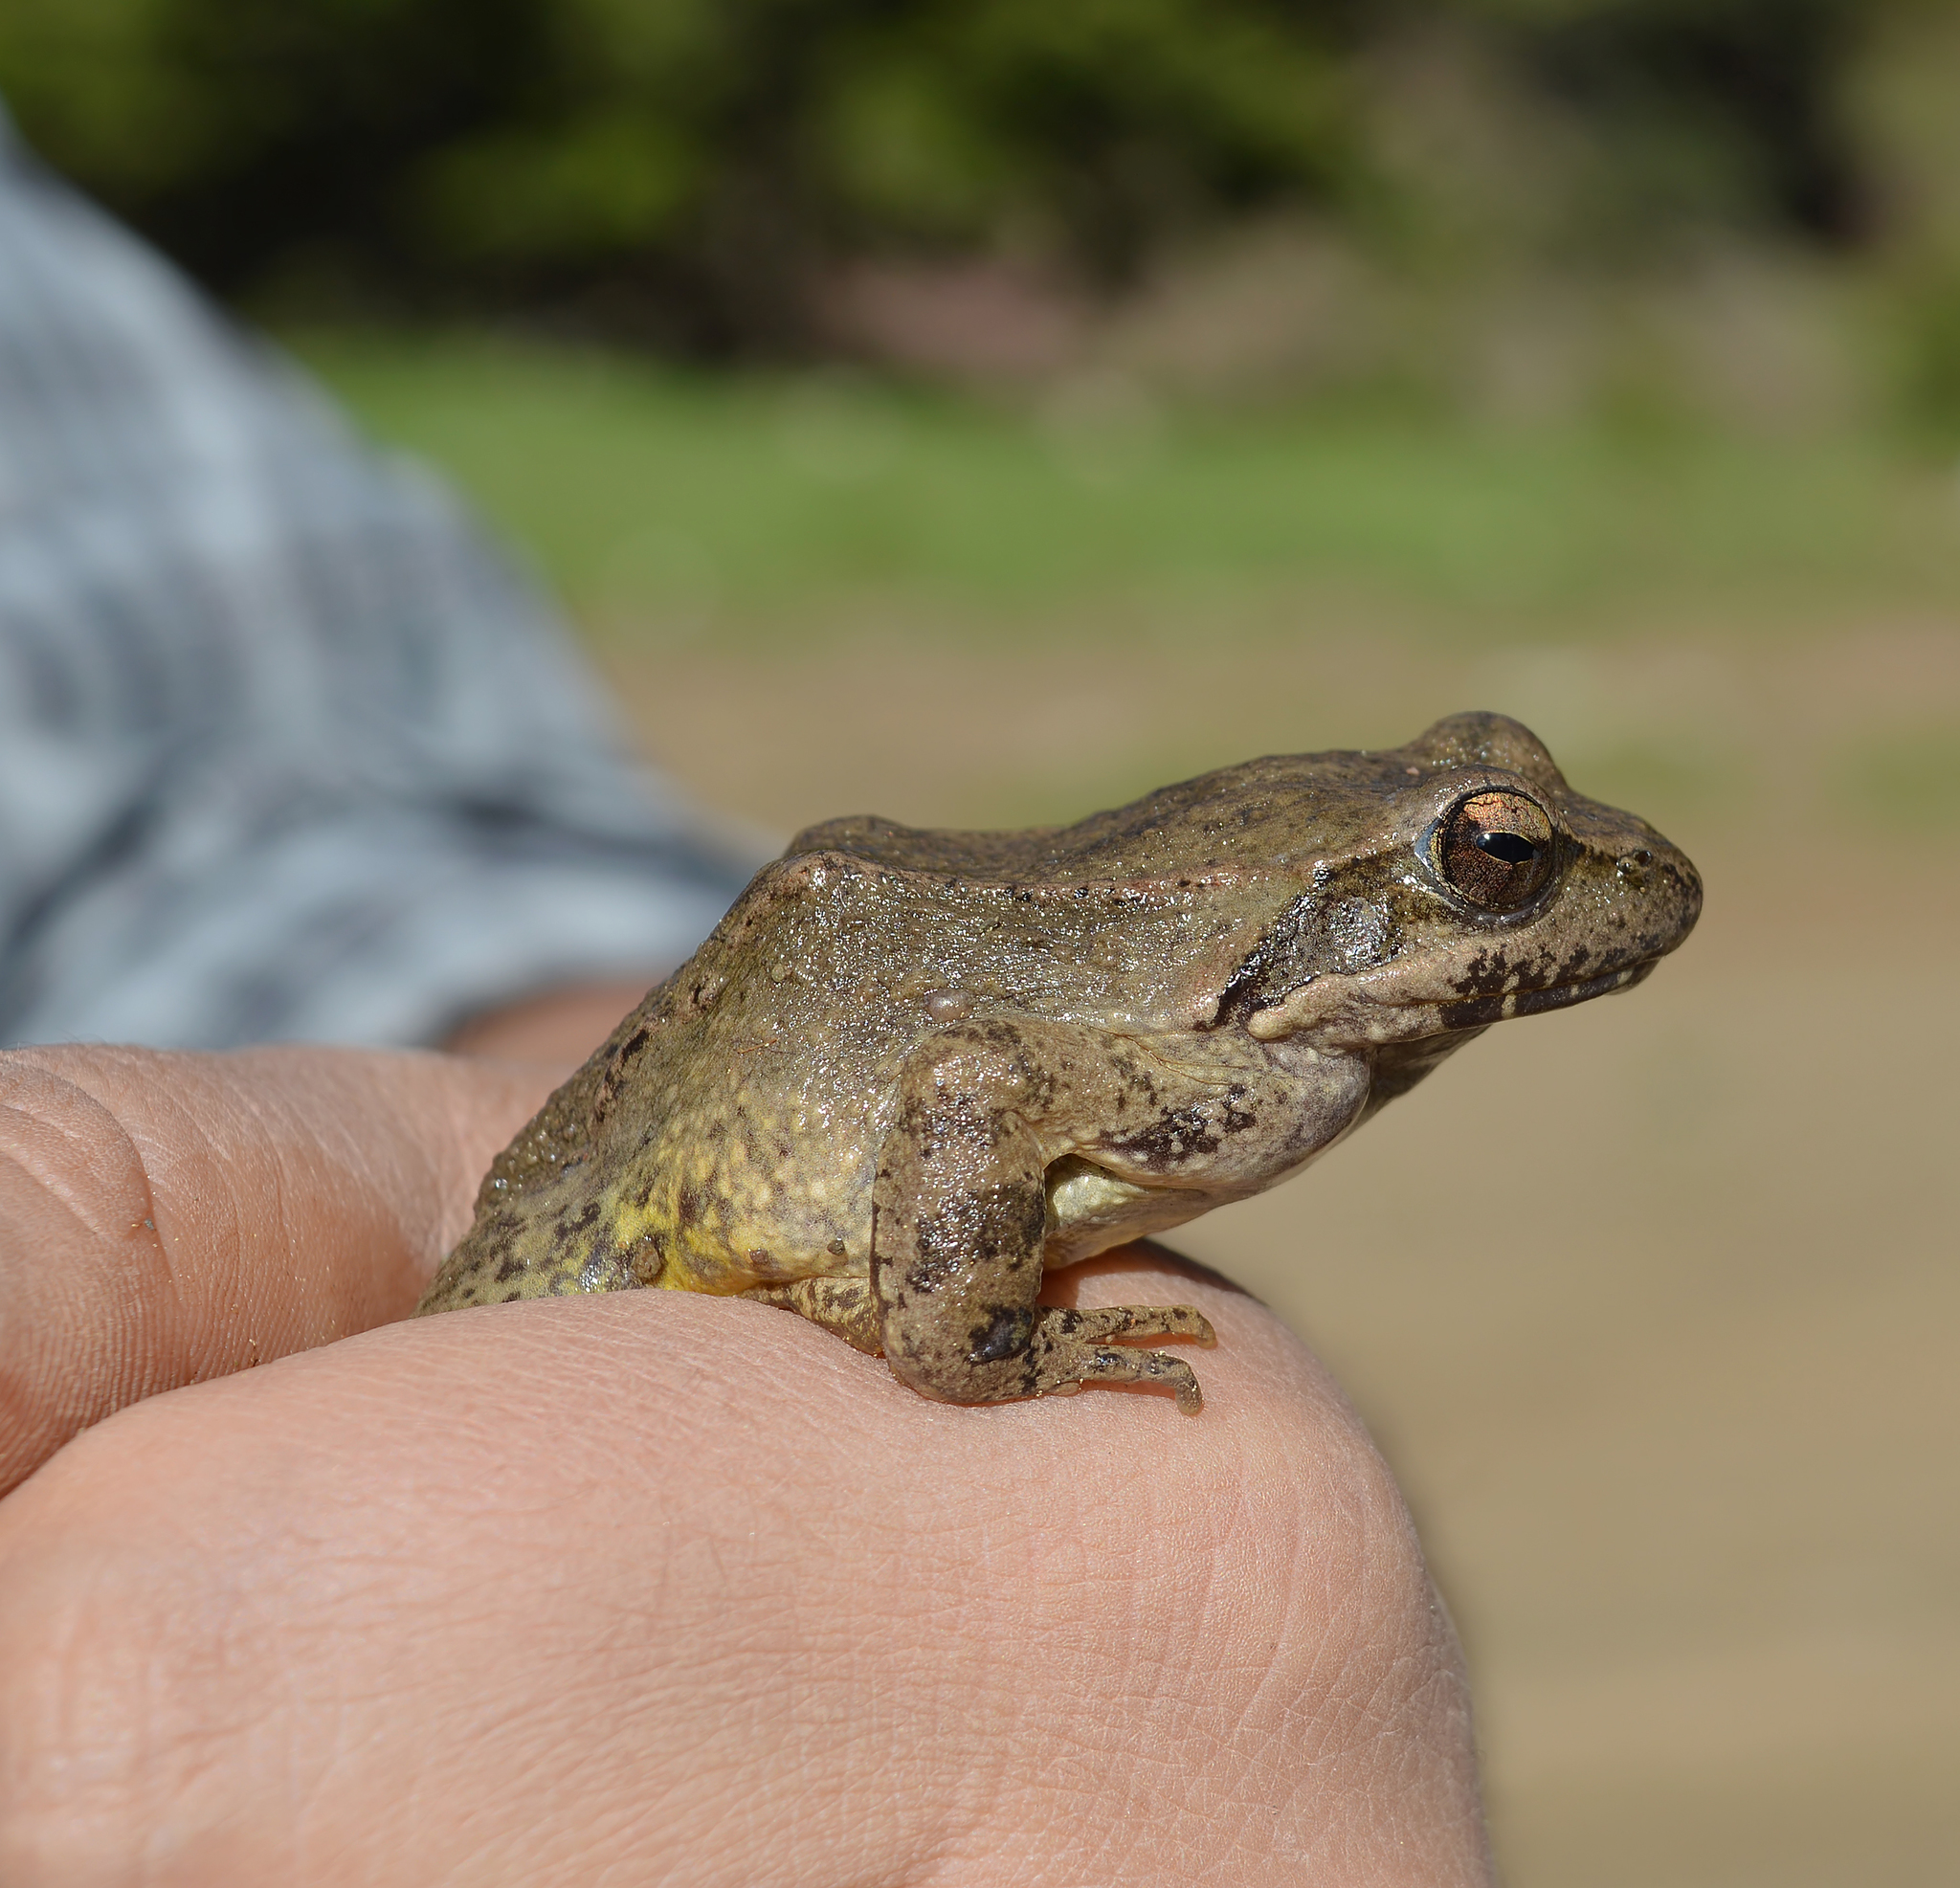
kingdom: Animalia
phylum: Chordata
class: Amphibia
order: Anura
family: Ranidae
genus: Rana
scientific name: Rana graeca
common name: Greek stream frog
